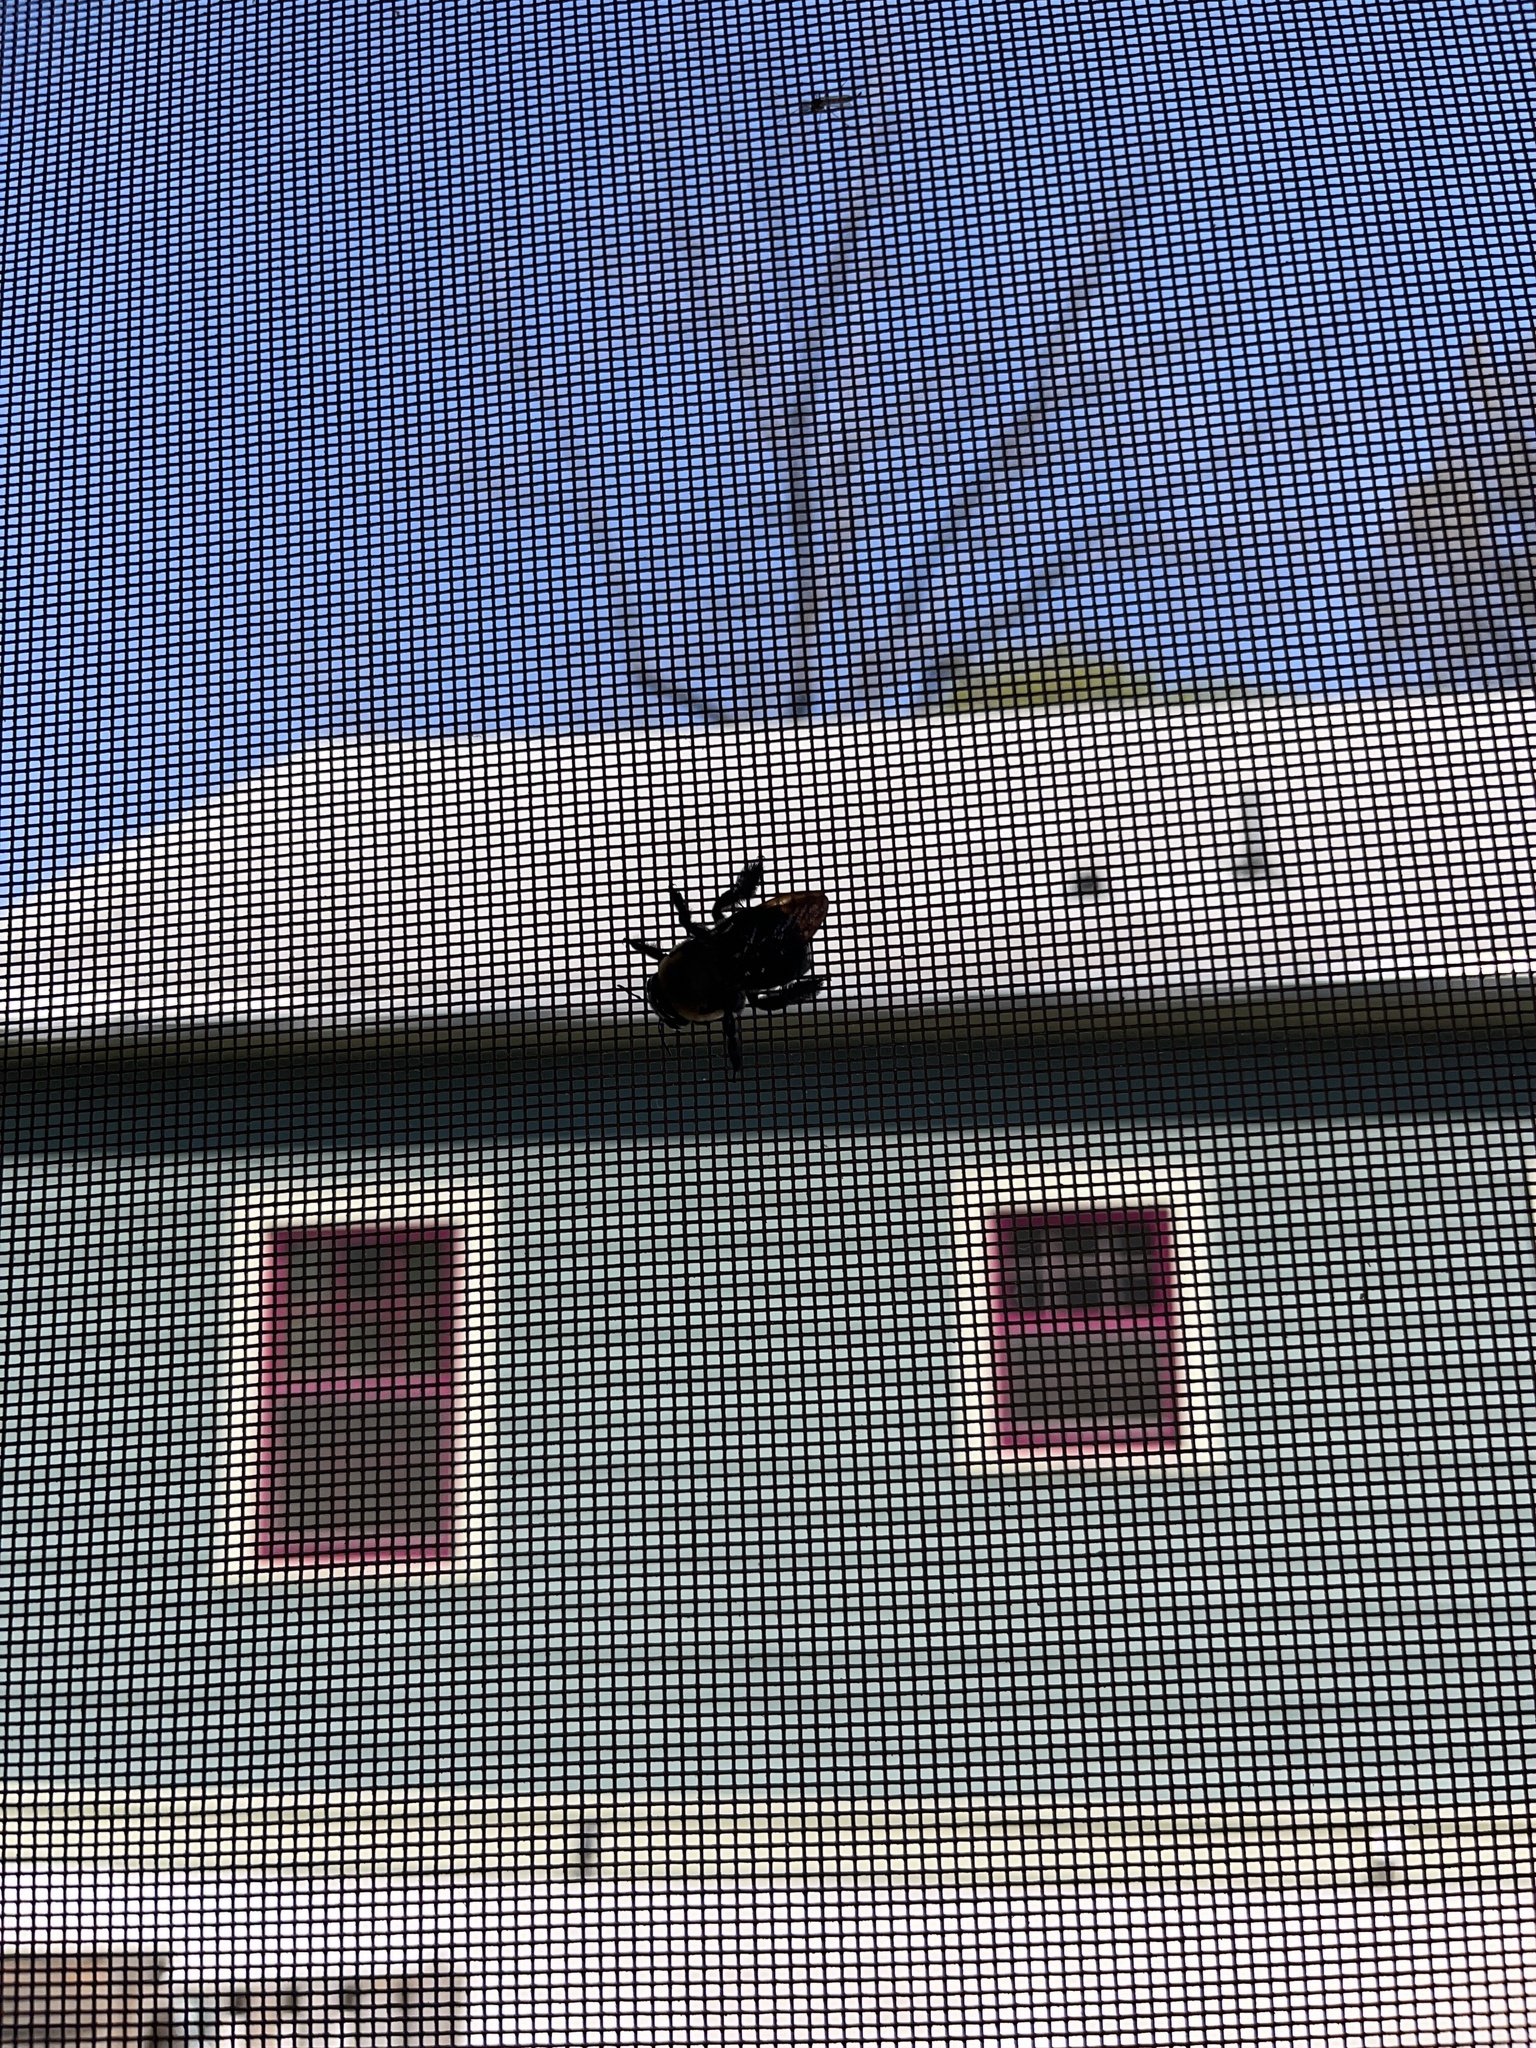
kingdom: Animalia
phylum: Arthropoda
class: Insecta
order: Hymenoptera
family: Apidae
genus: Xylocopa
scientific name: Xylocopa virginica
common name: Carpenter bee
